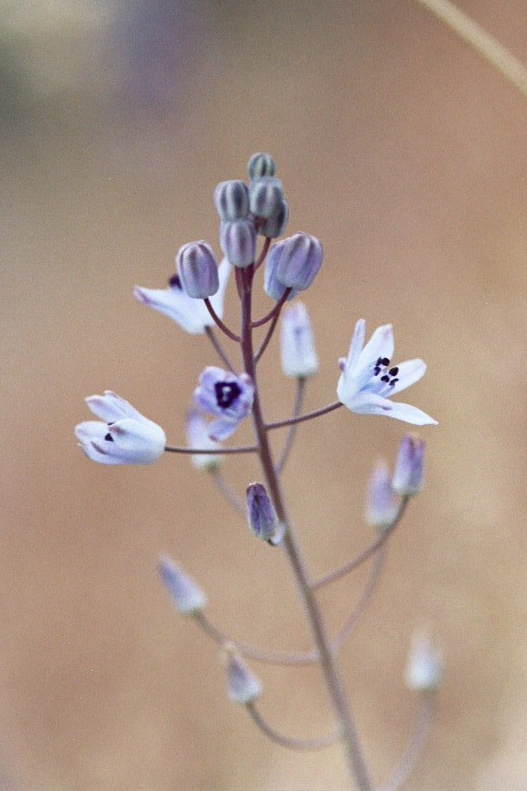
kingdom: Plantae
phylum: Tracheophyta
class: Liliopsida
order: Asparagales
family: Asparagaceae
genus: Prospero
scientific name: Prospero autumnale
